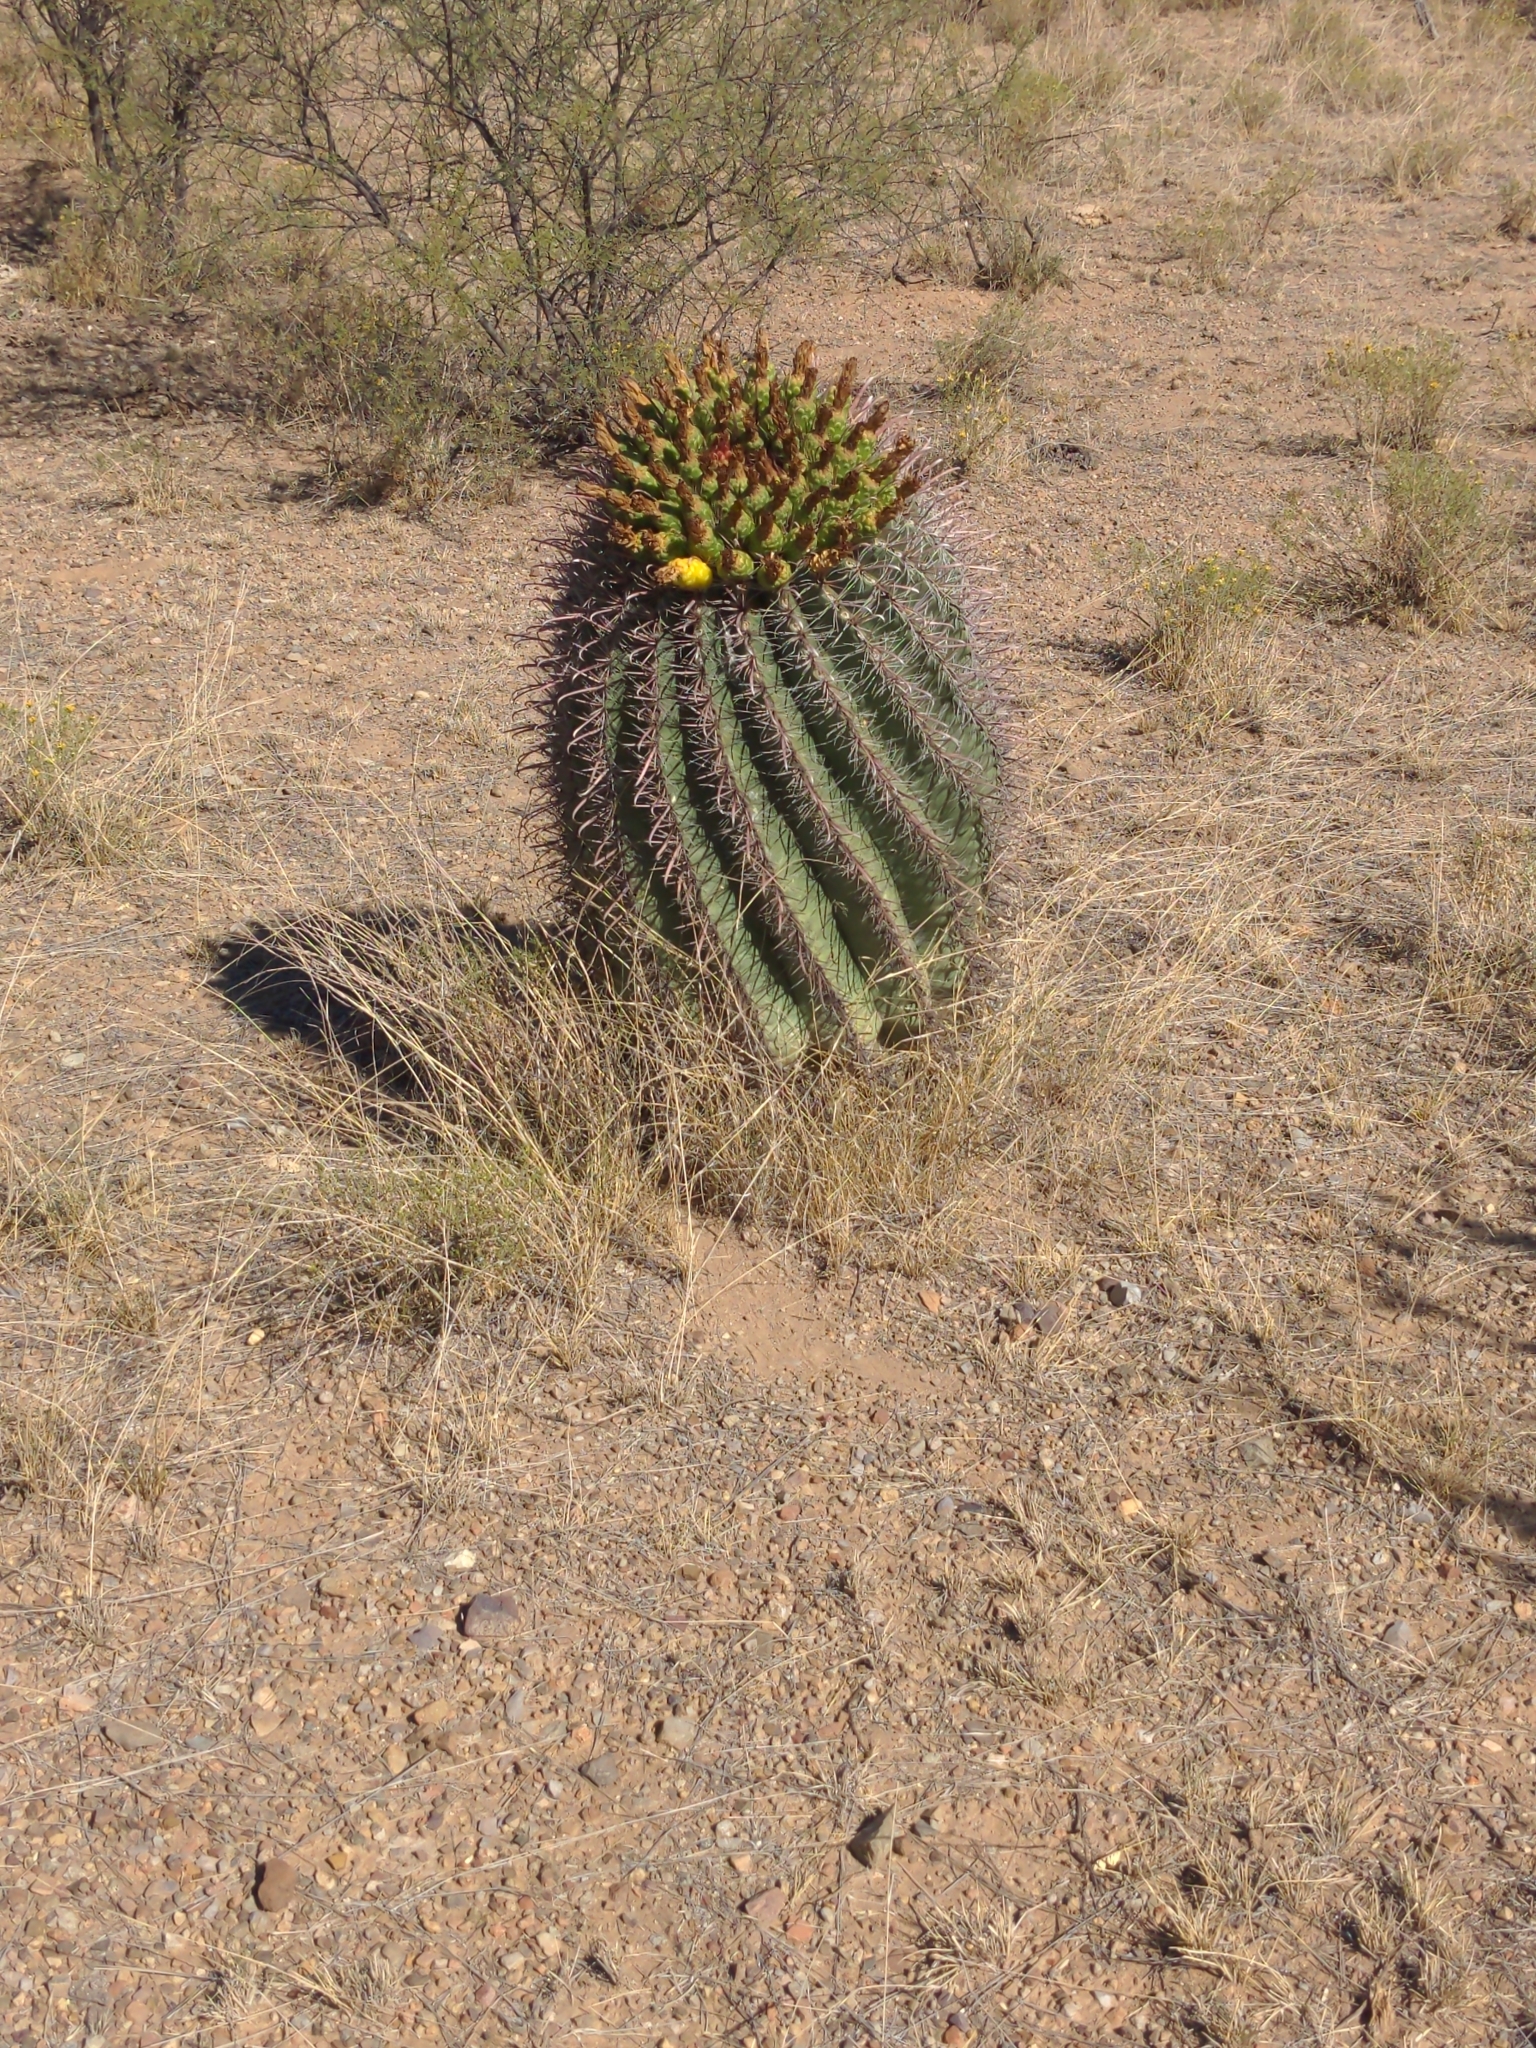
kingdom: Plantae
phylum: Tracheophyta
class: Magnoliopsida
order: Caryophyllales
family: Cactaceae
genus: Ferocactus
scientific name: Ferocactus wislizeni
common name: Candy barrel cactus
